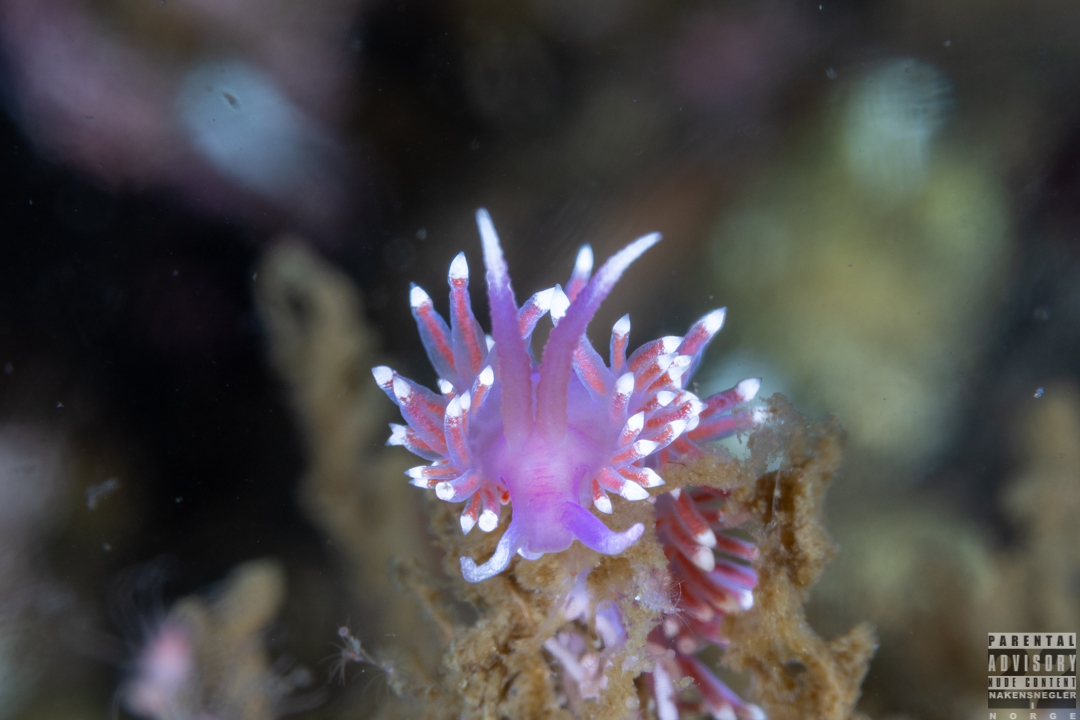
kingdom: Animalia
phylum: Mollusca
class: Gastropoda
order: Nudibranchia
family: Flabellinidae
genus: Edmundsella
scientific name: Edmundsella pedata
